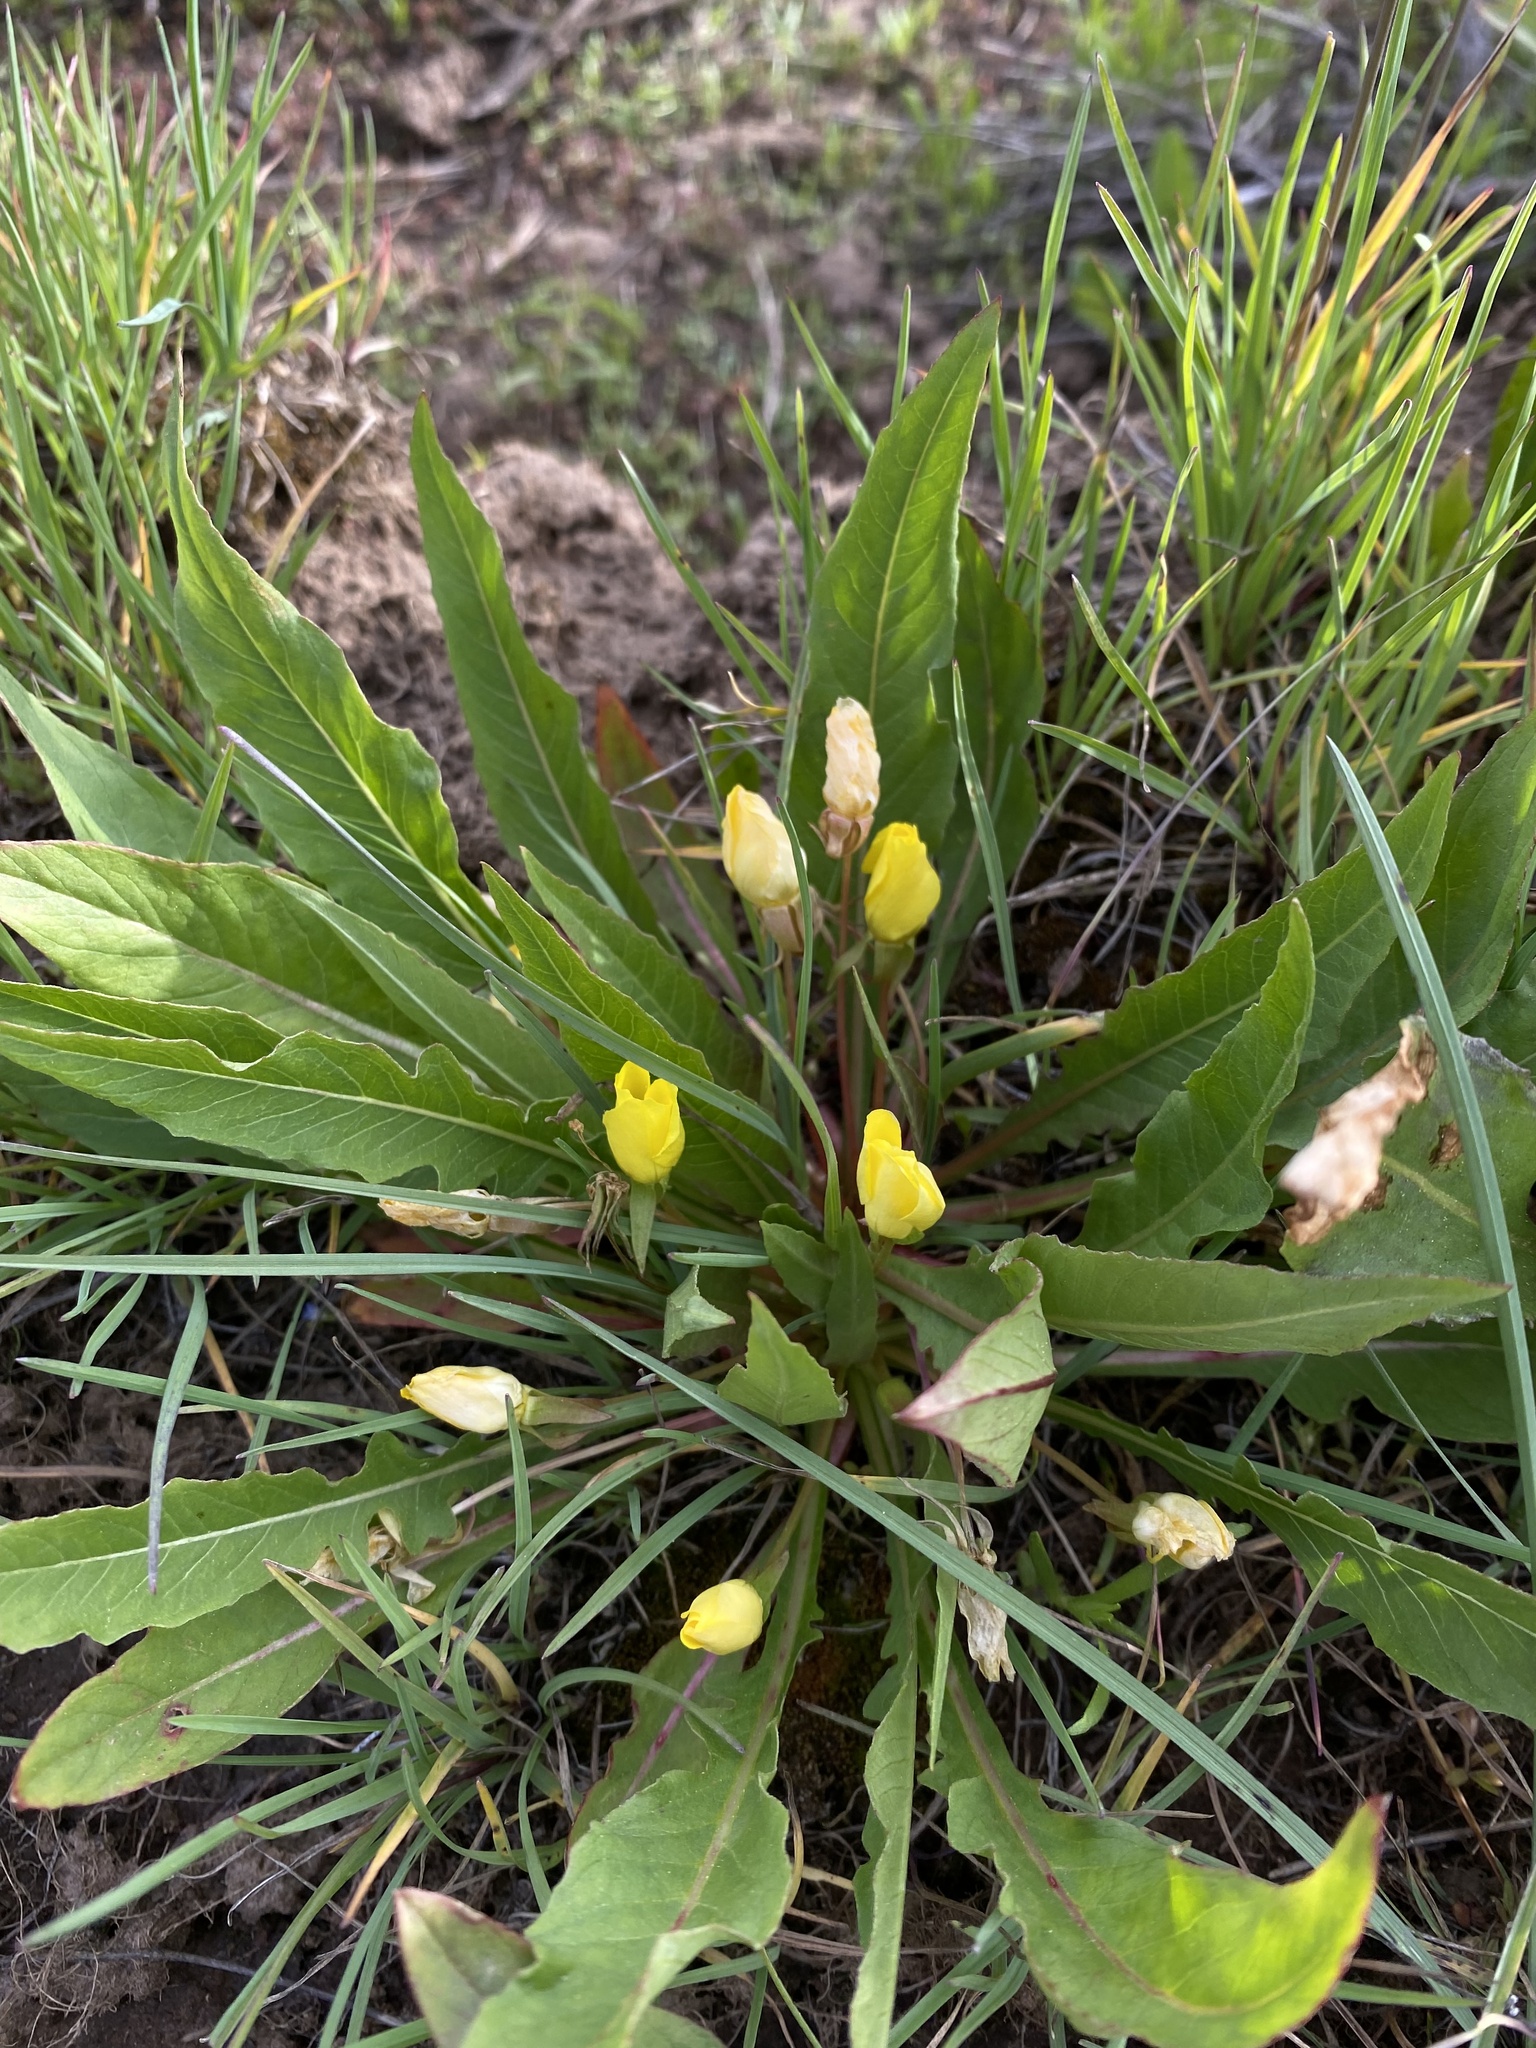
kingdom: Plantae
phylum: Tracheophyta
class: Magnoliopsida
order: Myrtales
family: Onagraceae
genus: Taraxia
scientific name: Taraxia subacaulis
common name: Diffuseflower evening primrose
